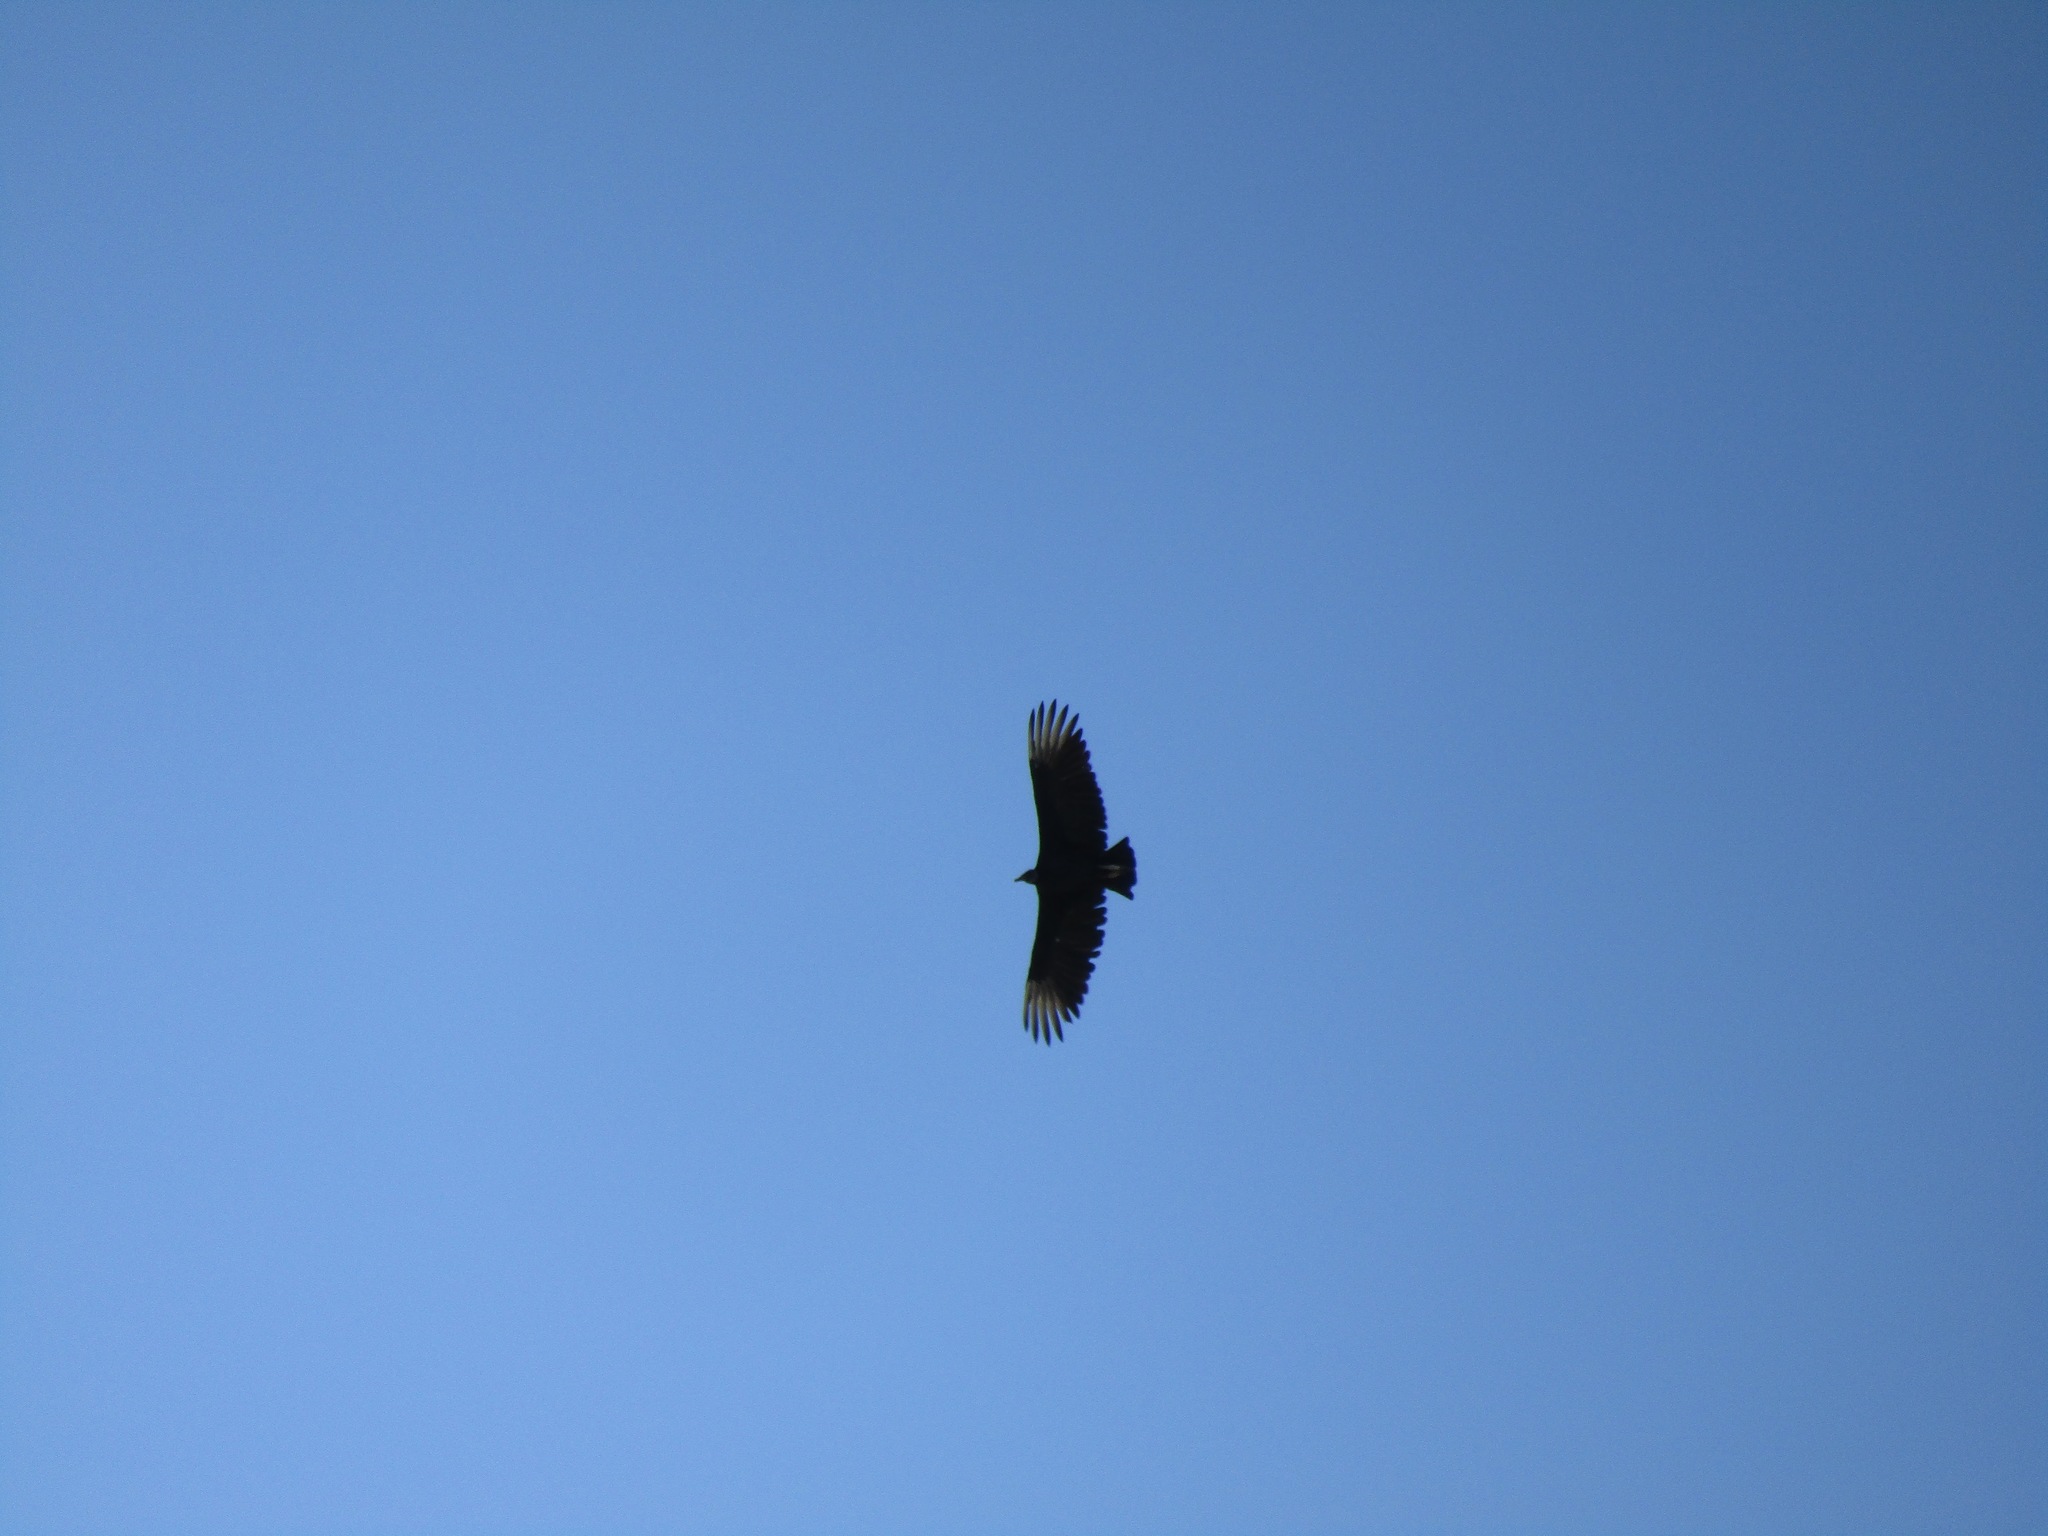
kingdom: Animalia
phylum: Chordata
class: Aves
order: Accipitriformes
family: Cathartidae
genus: Coragyps
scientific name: Coragyps atratus
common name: Black vulture
